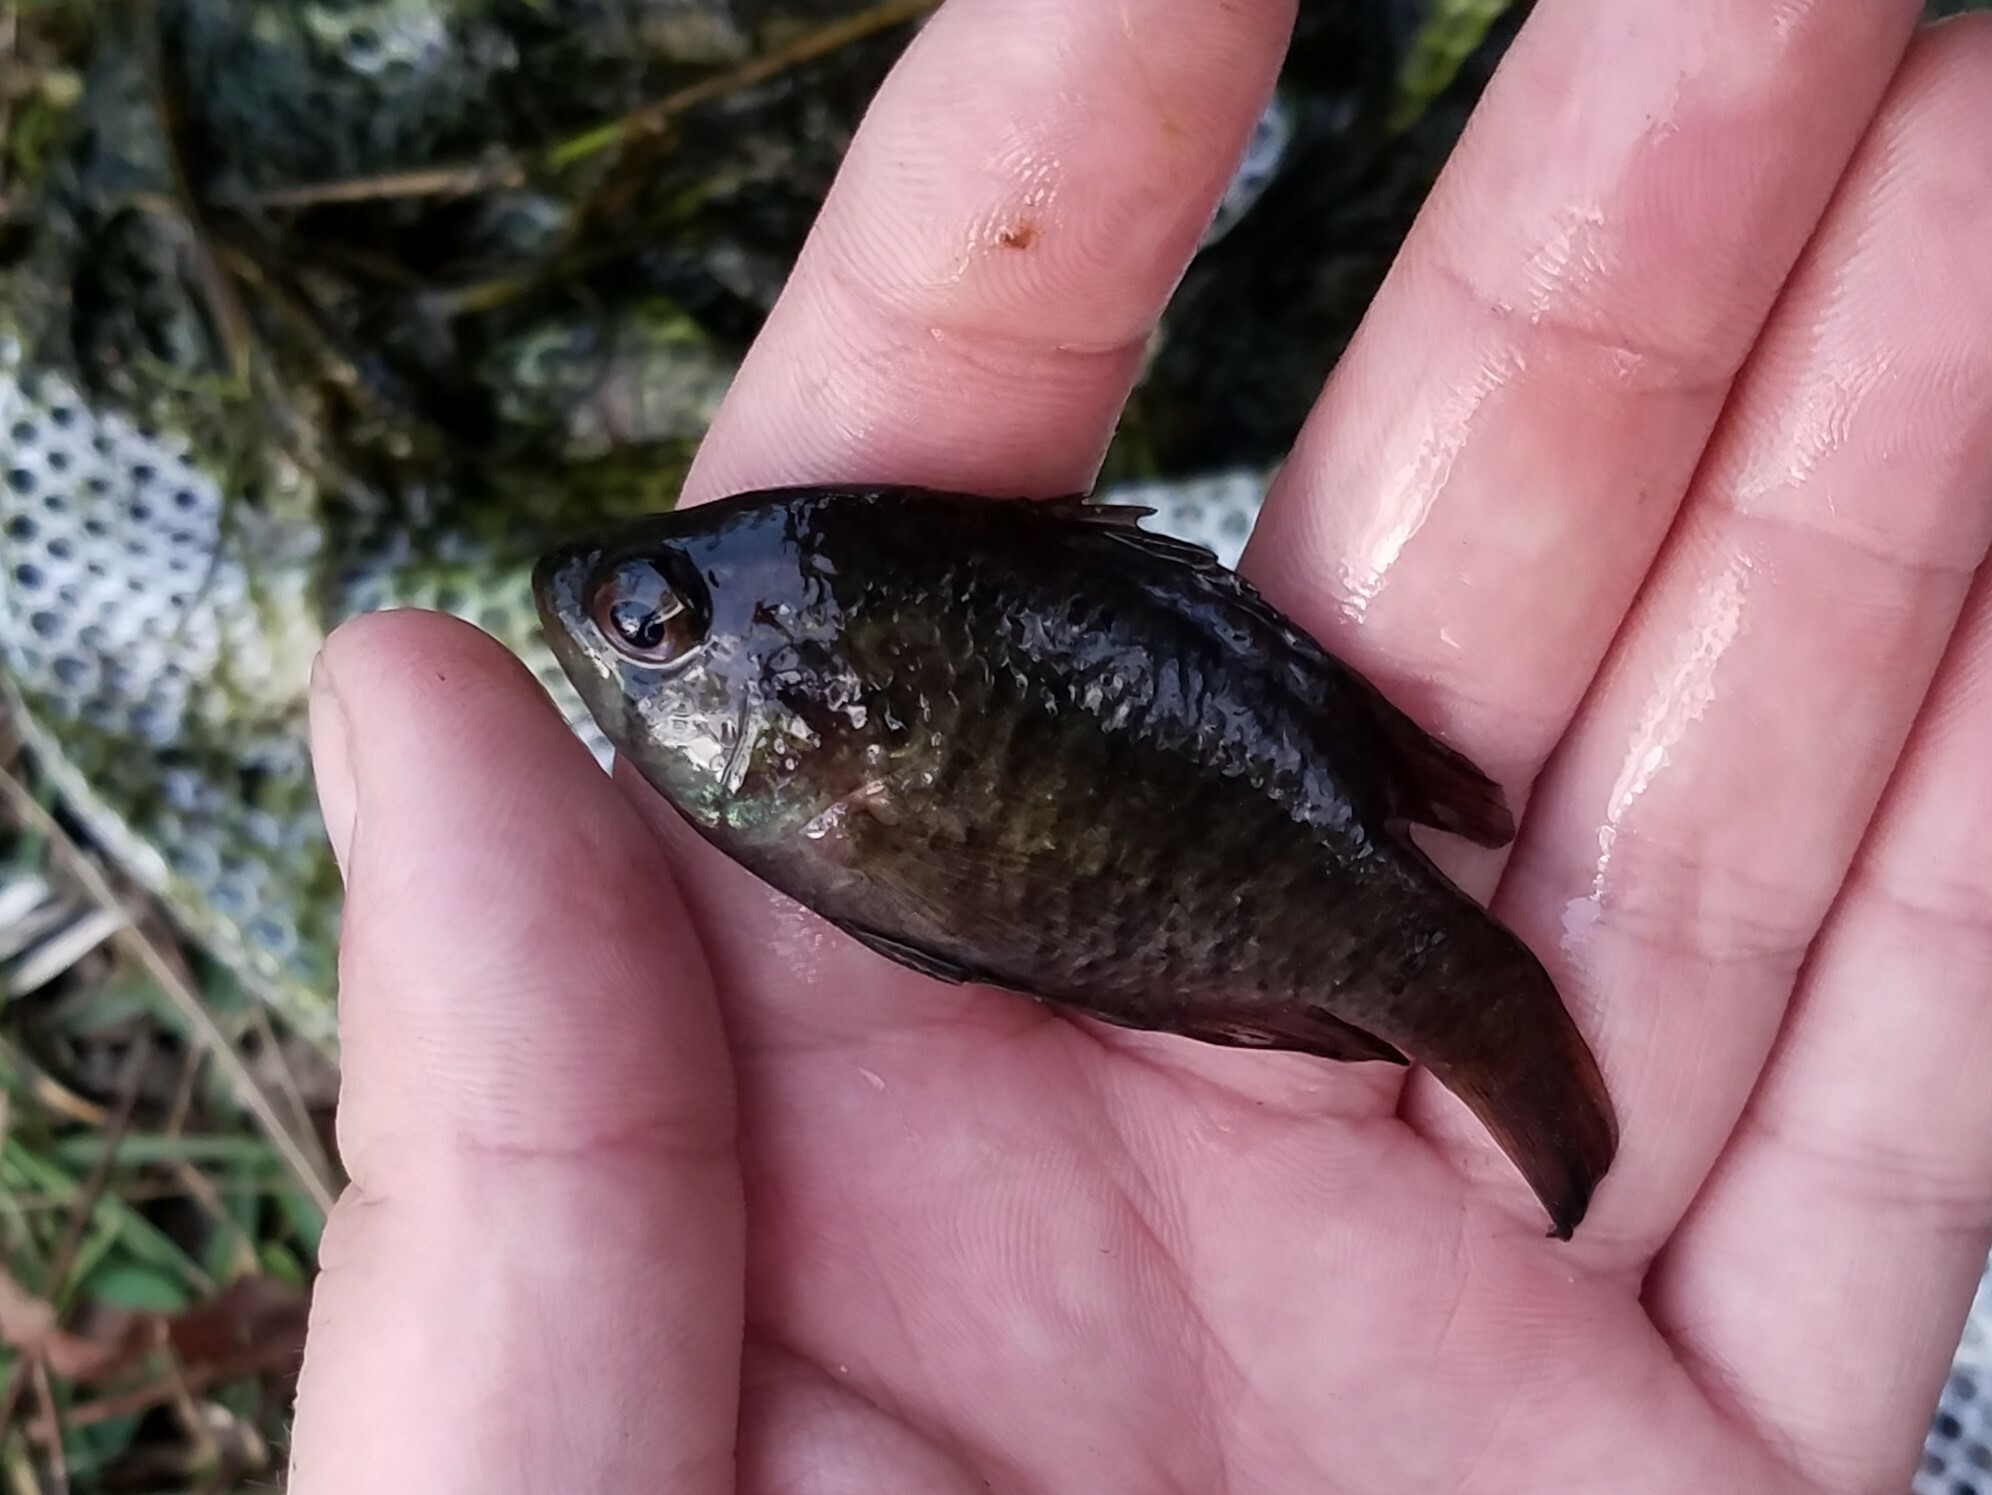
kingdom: Animalia
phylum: Chordata
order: Perciformes
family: Centrarchidae
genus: Enneacanthus
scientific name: Enneacanthus obesus
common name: Banded sunfish
